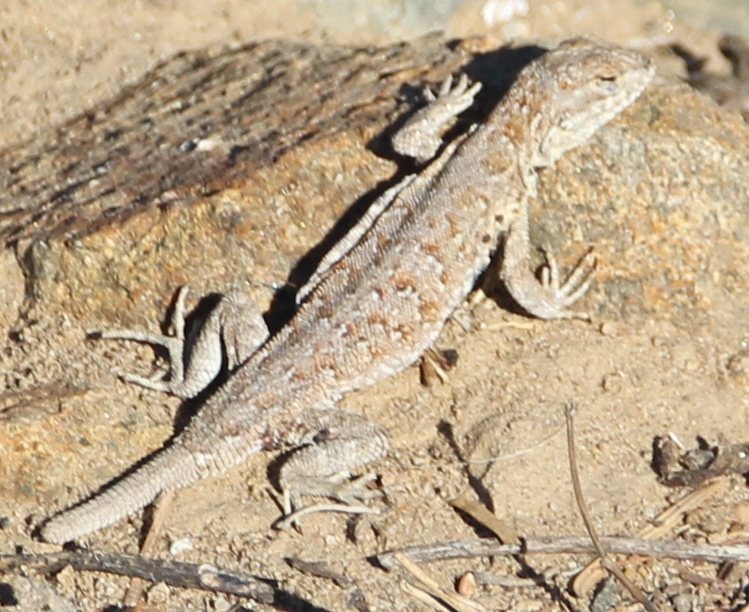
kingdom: Animalia
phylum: Chordata
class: Squamata
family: Phrynosomatidae
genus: Uta
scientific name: Uta stansburiana
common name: Side-blotched lizard
